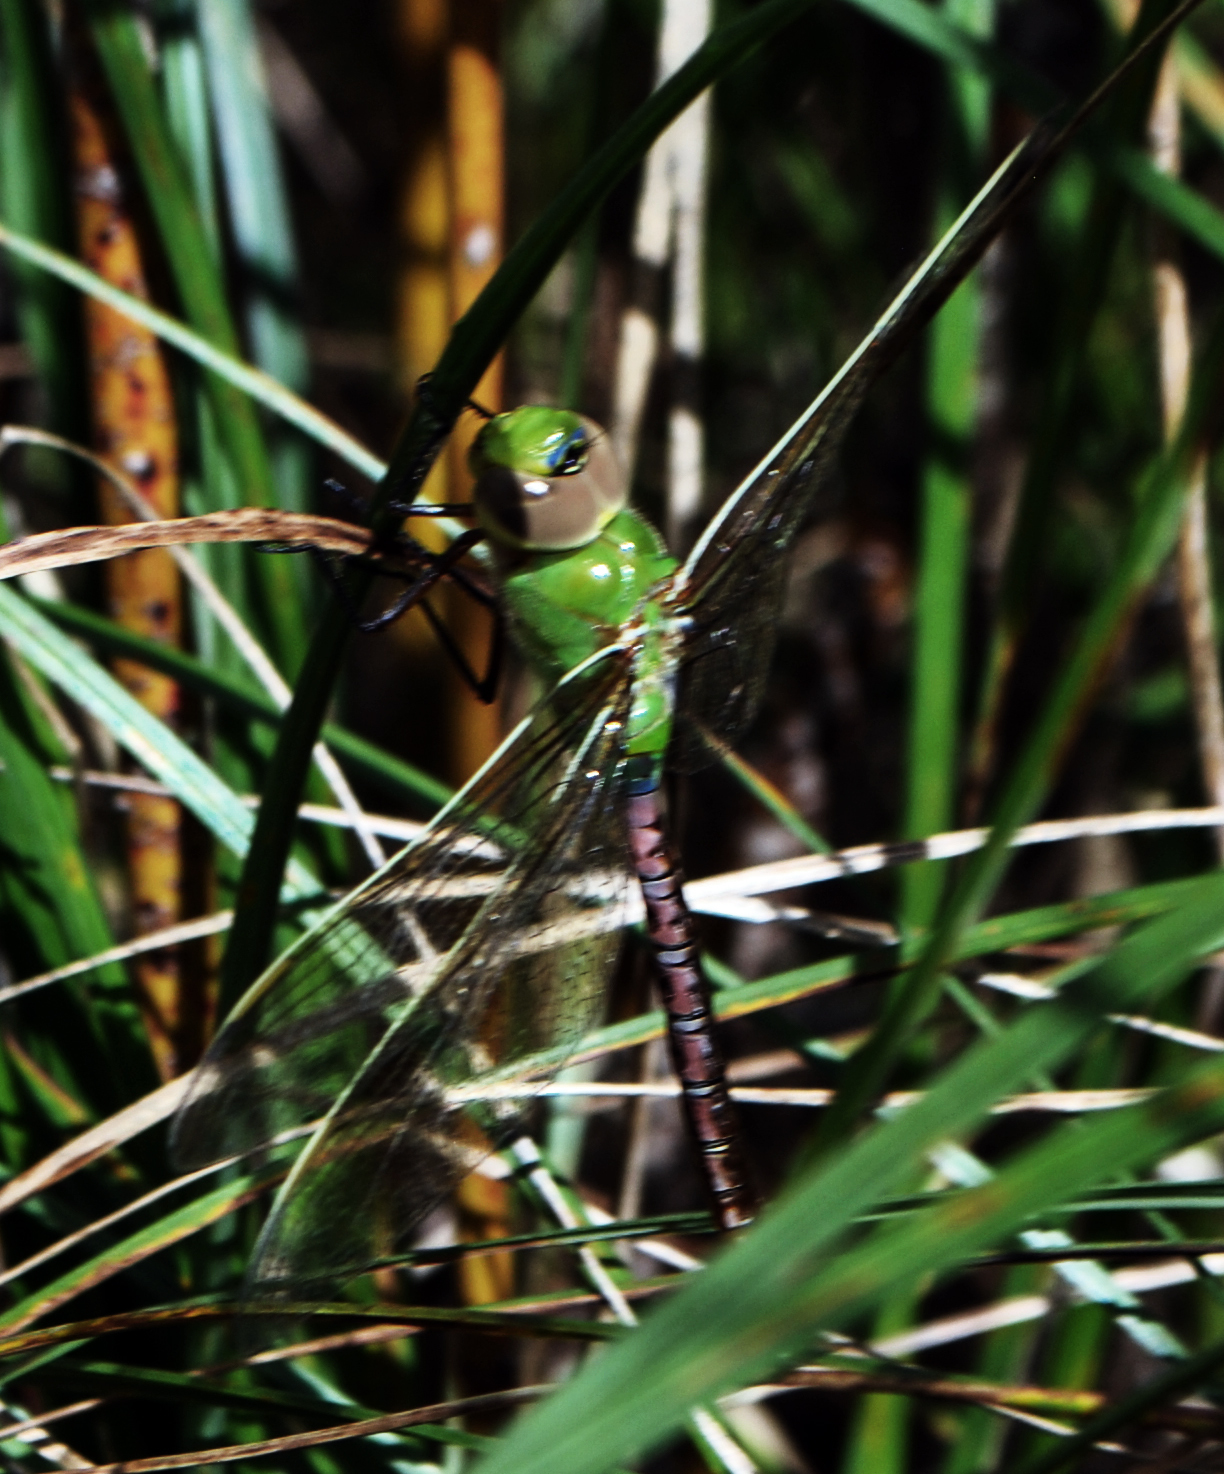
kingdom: Animalia
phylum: Arthropoda
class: Insecta
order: Odonata
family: Aeshnidae
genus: Anax
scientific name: Anax junius
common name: Common green darner
